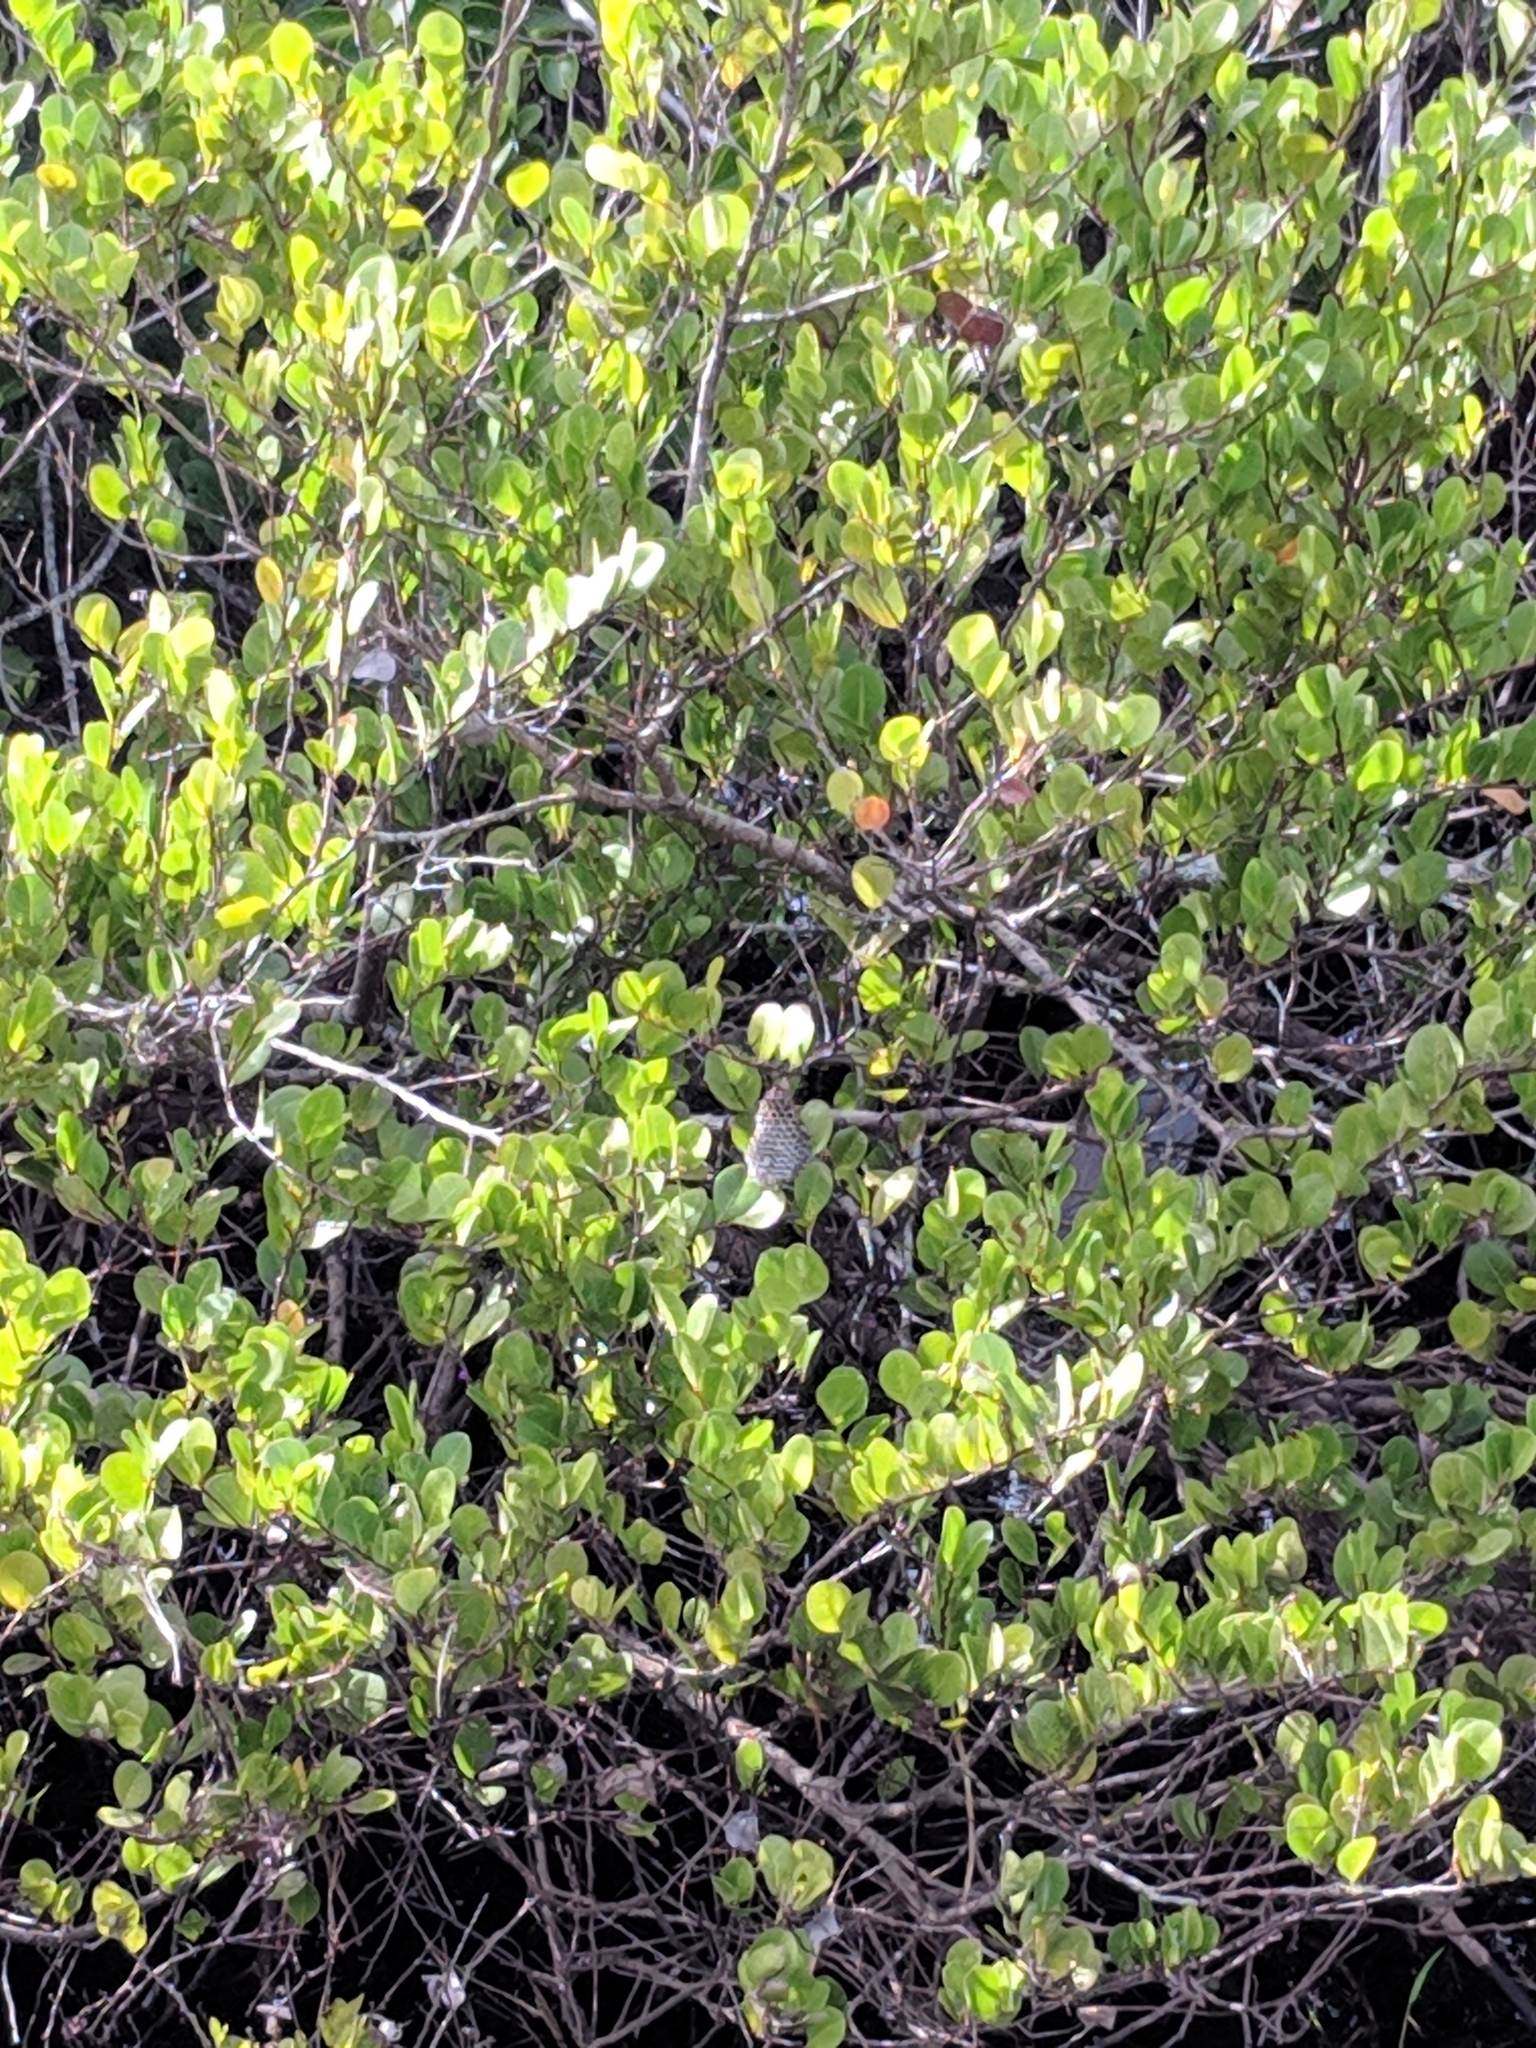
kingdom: Animalia
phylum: Arthropoda
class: Insecta
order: Hymenoptera
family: Eumenidae
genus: Polistes
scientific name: Polistes
